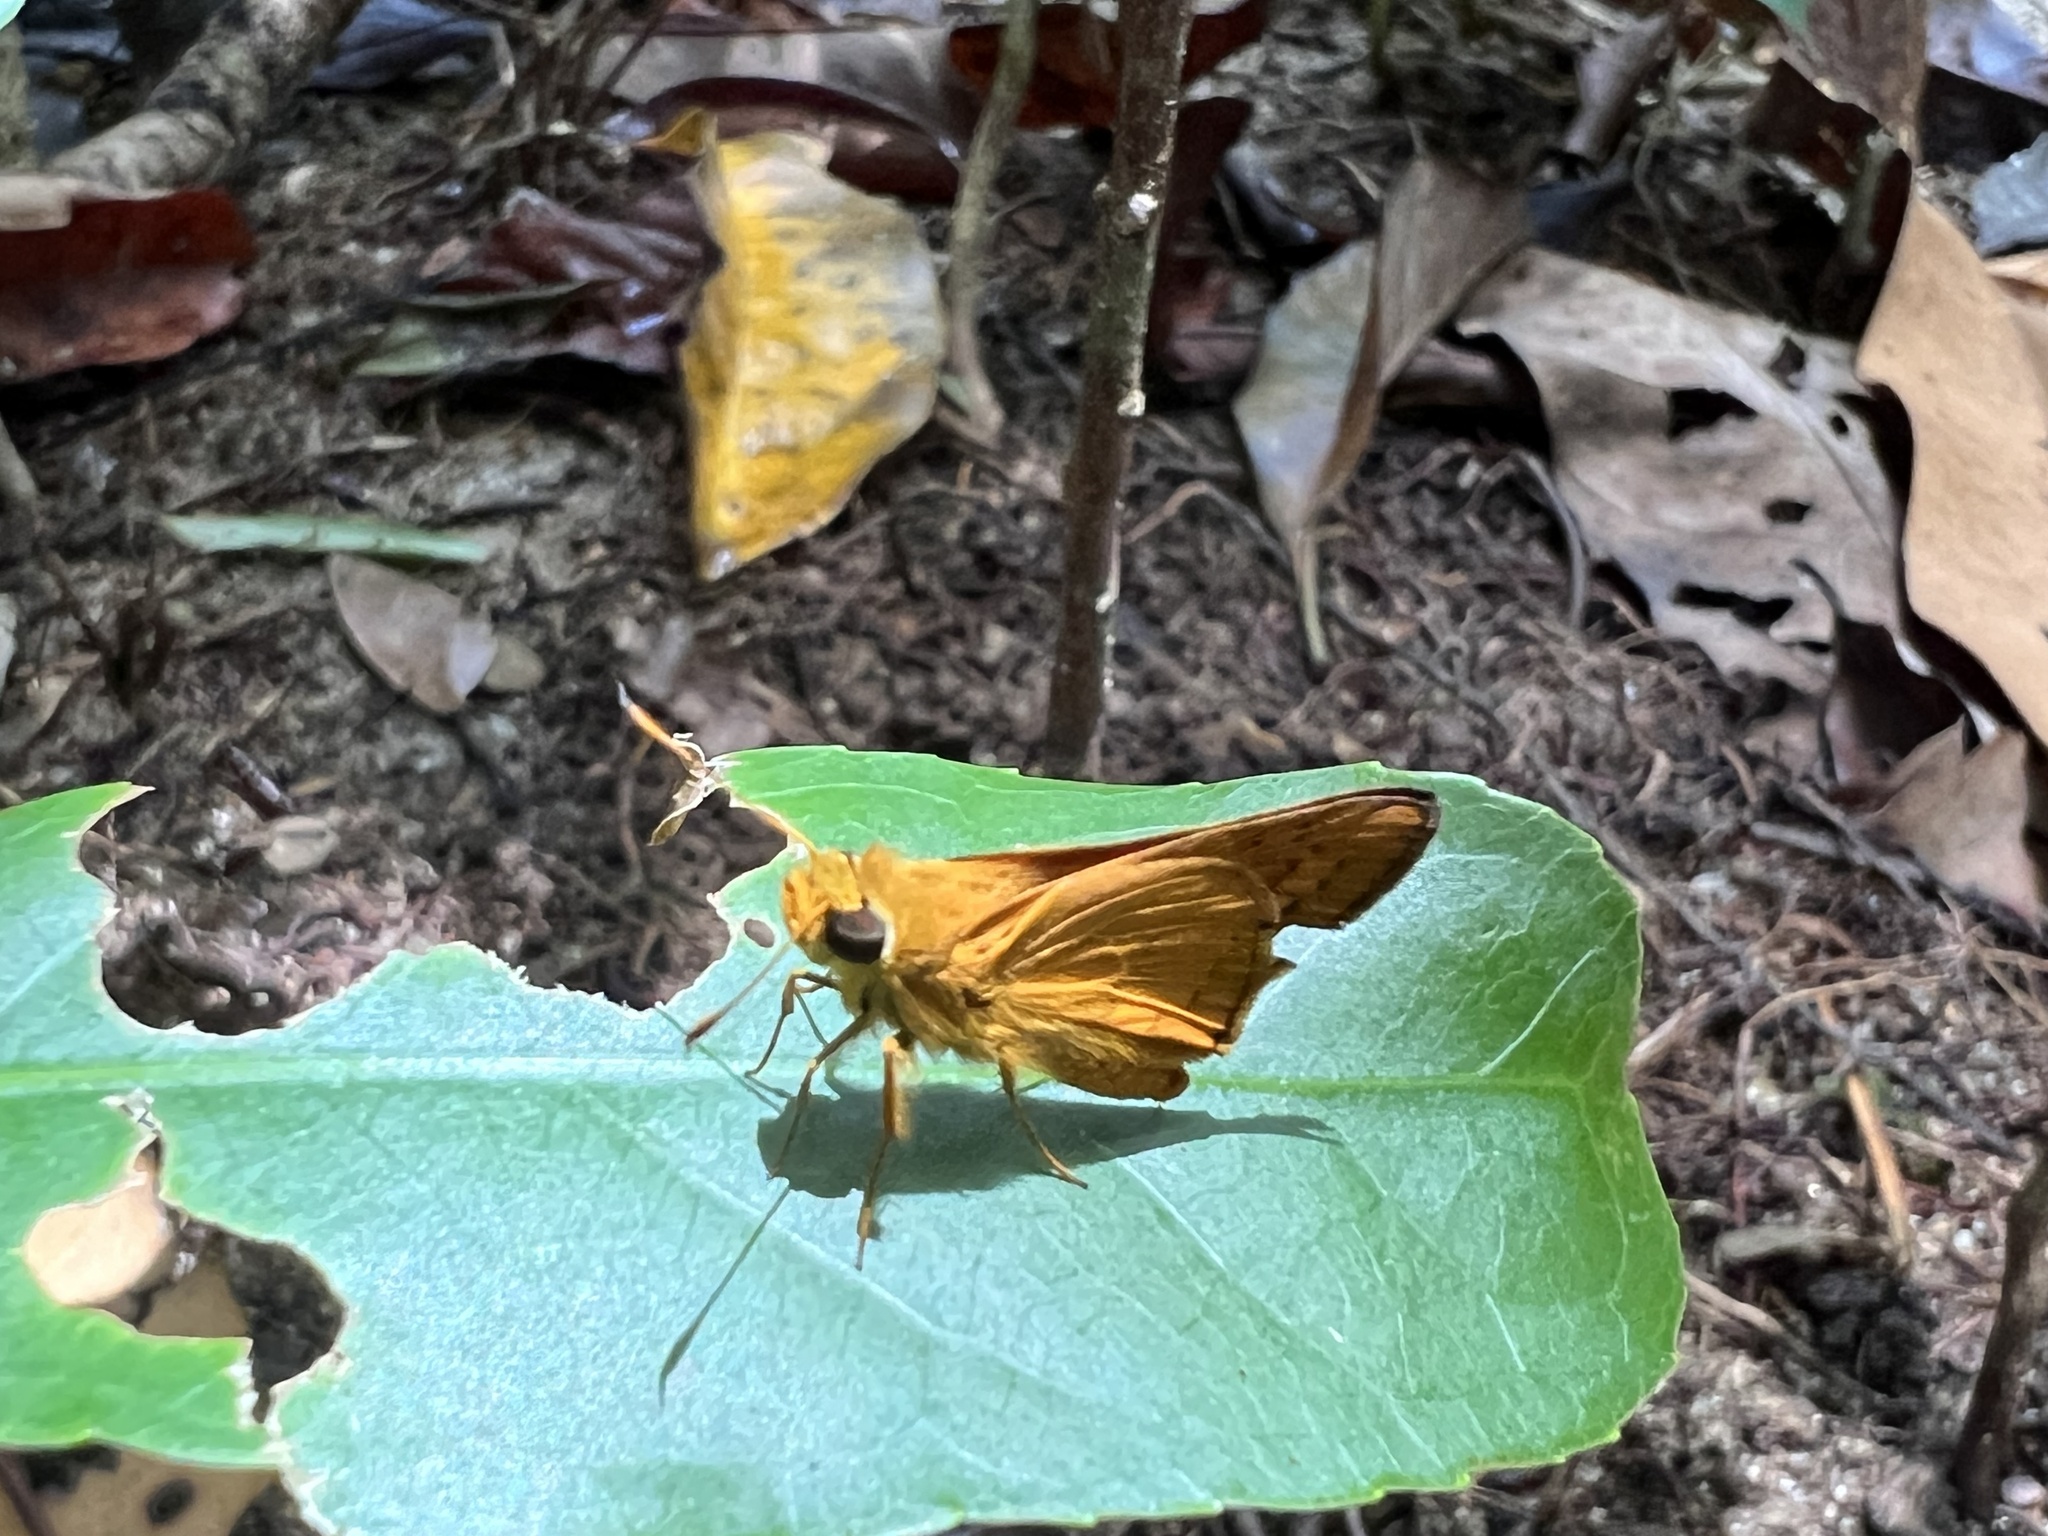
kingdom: Animalia
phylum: Arthropoda
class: Insecta
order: Lepidoptera
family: Hesperiidae
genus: Telicota
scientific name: Telicota paceka
